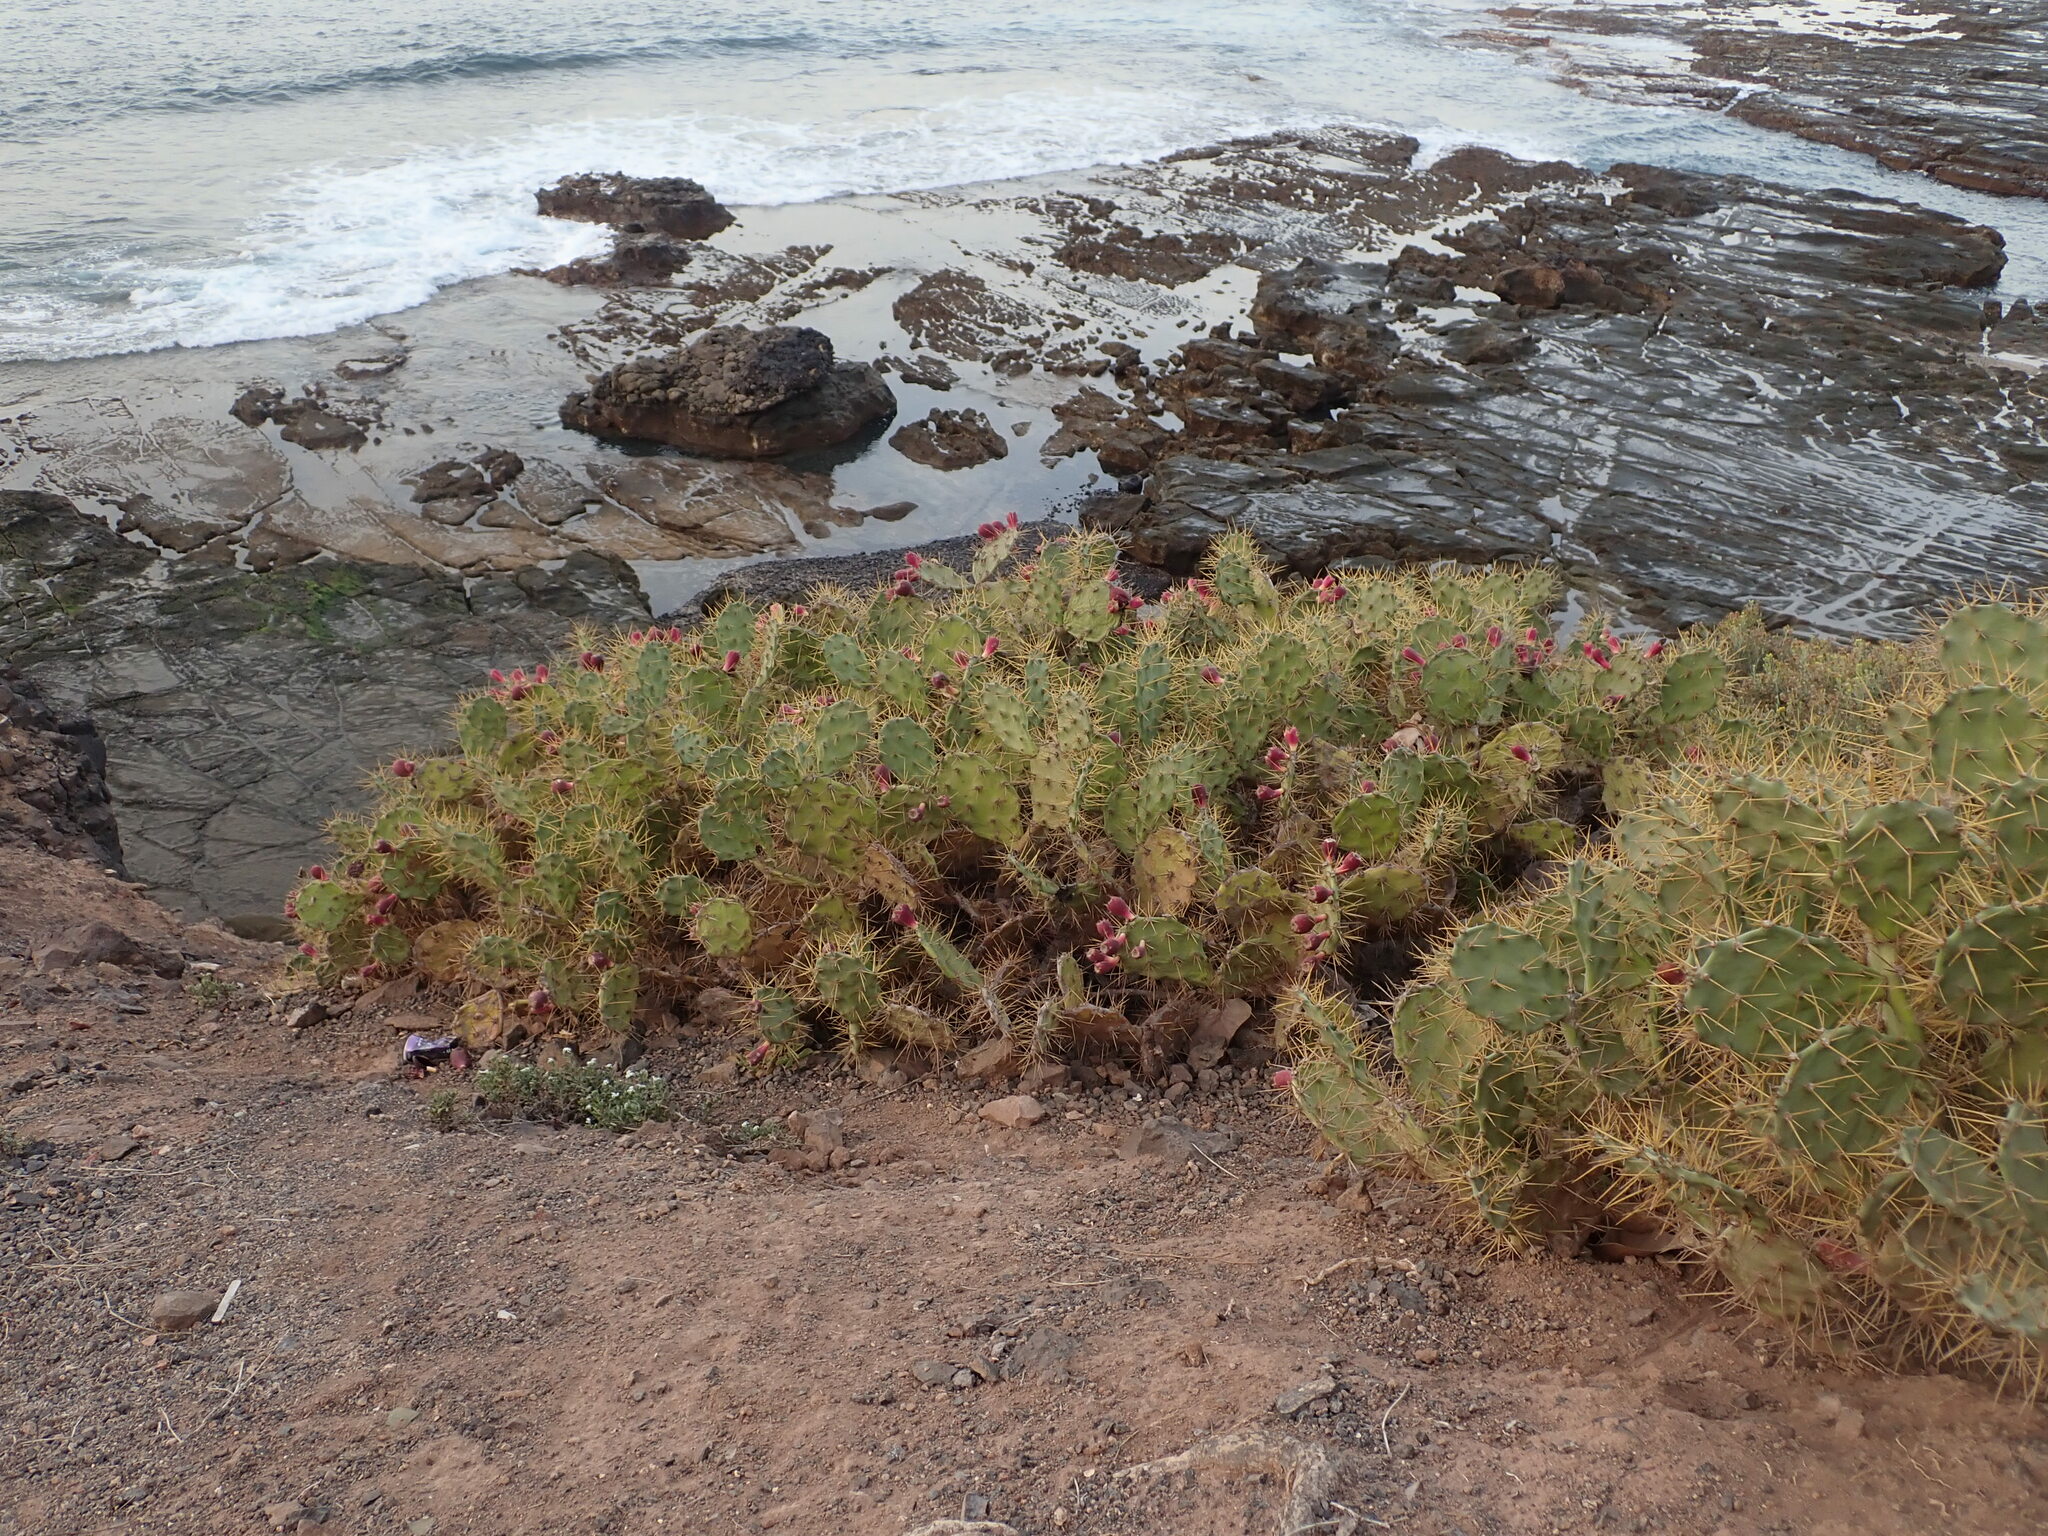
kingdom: Plantae
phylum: Tracheophyta
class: Magnoliopsida
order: Caryophyllales
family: Cactaceae
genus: Opuntia
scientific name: Opuntia stricta
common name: Erect pricklypear
